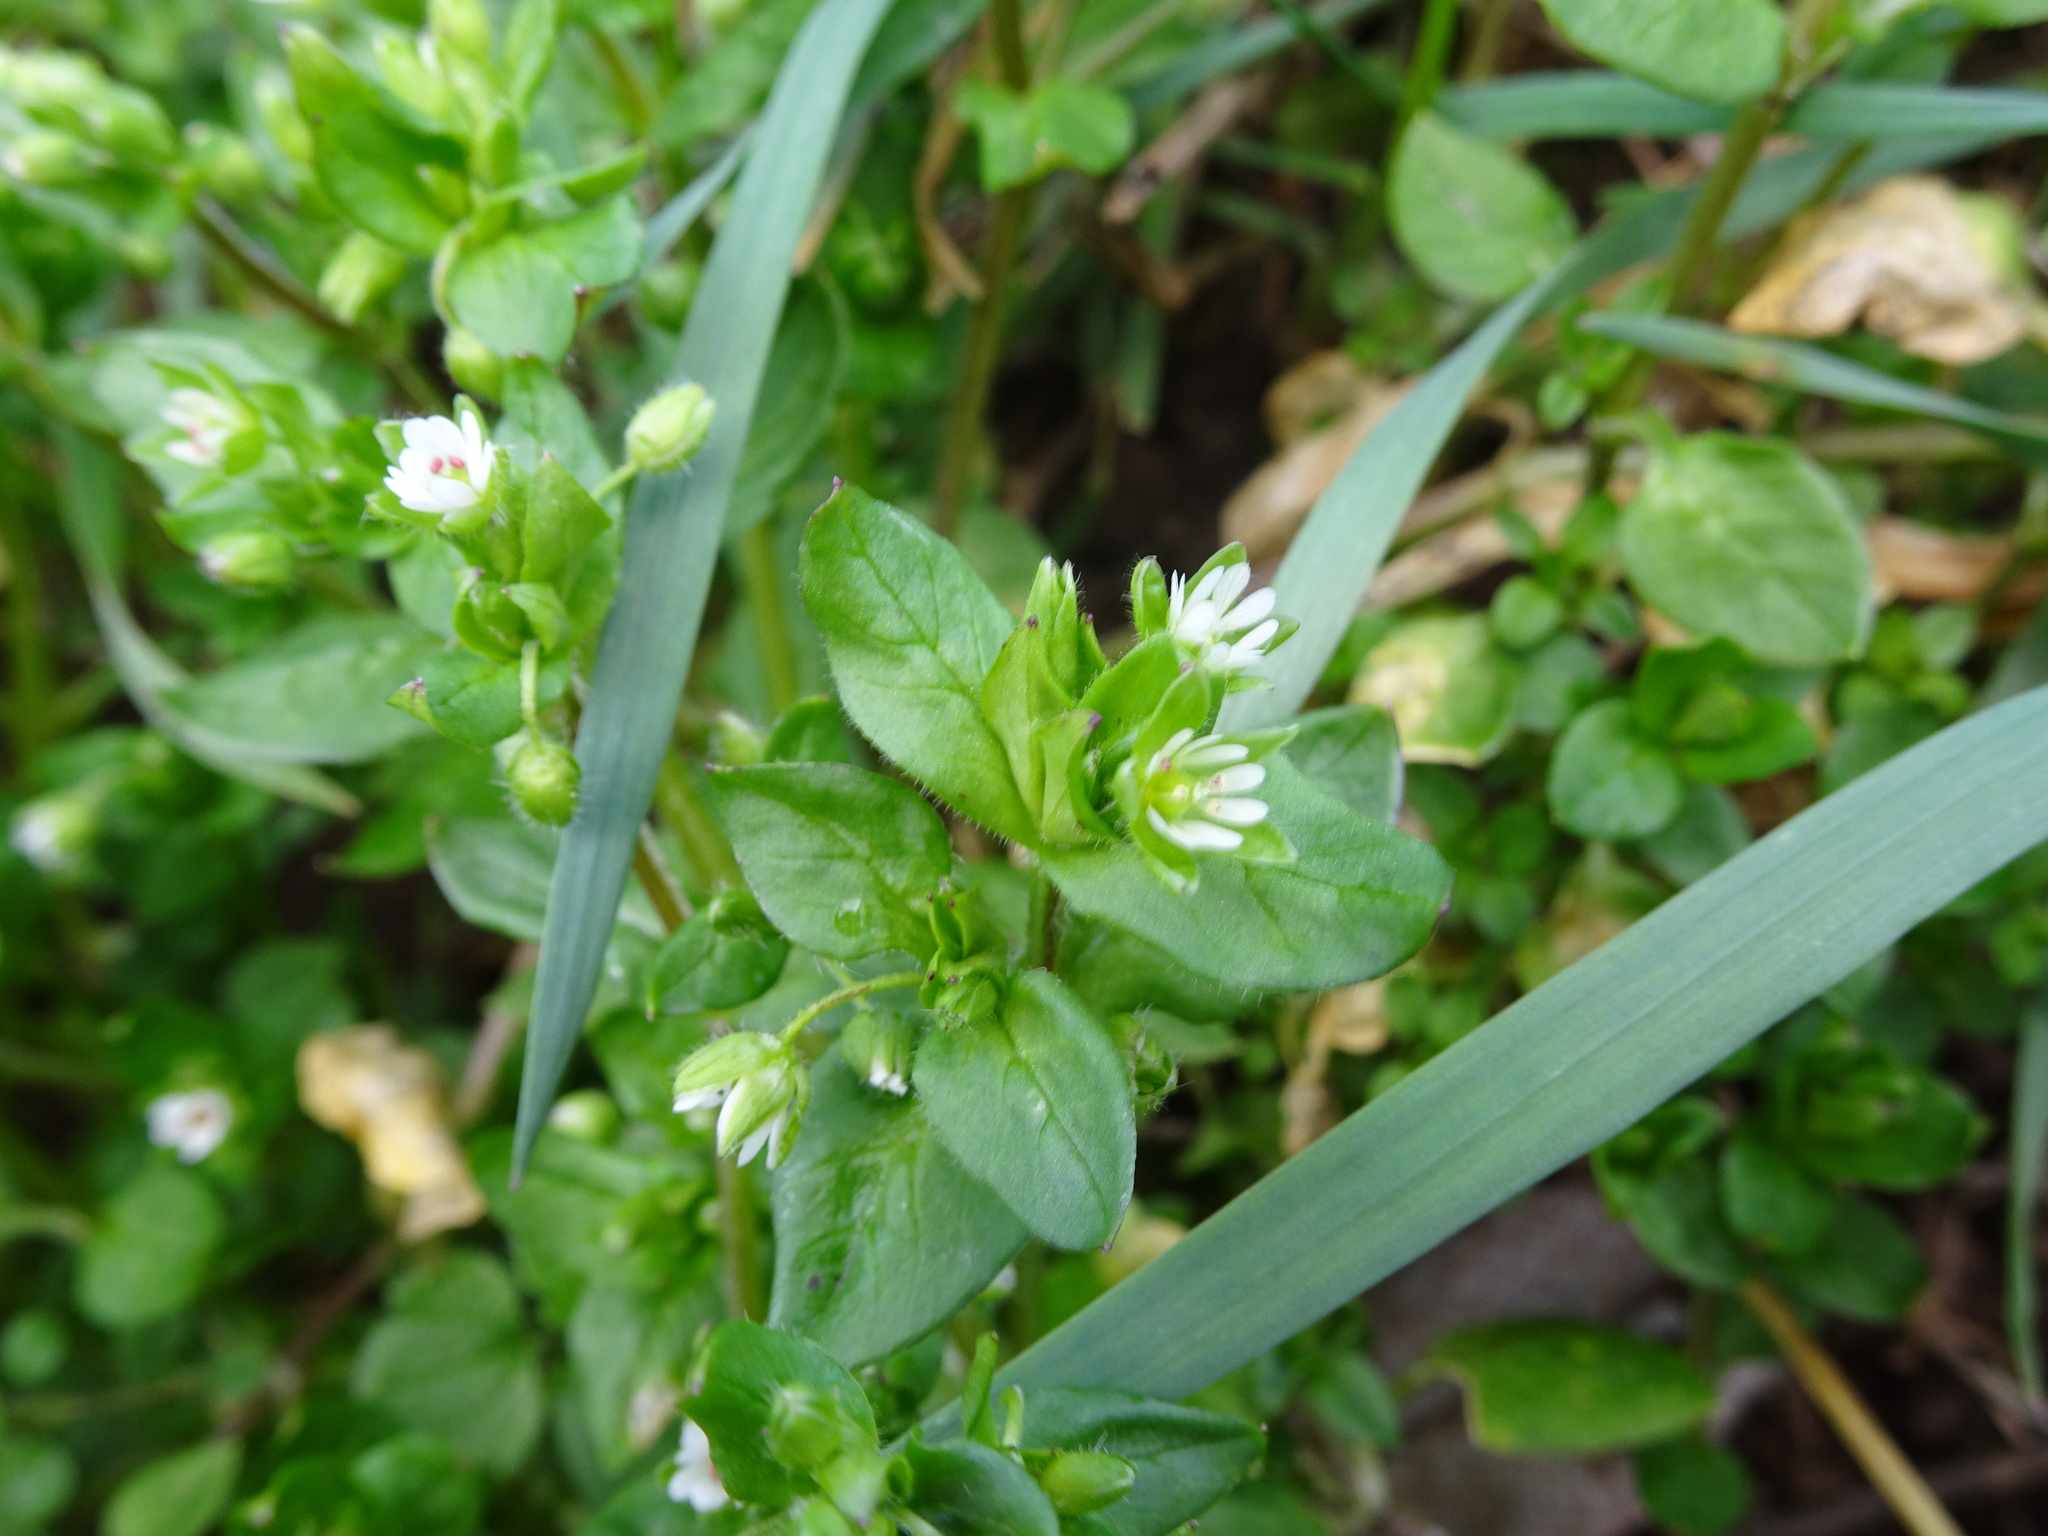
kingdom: Plantae
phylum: Tracheophyta
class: Magnoliopsida
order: Caryophyllales
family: Caryophyllaceae
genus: Stellaria
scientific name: Stellaria media
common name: Common chickweed
